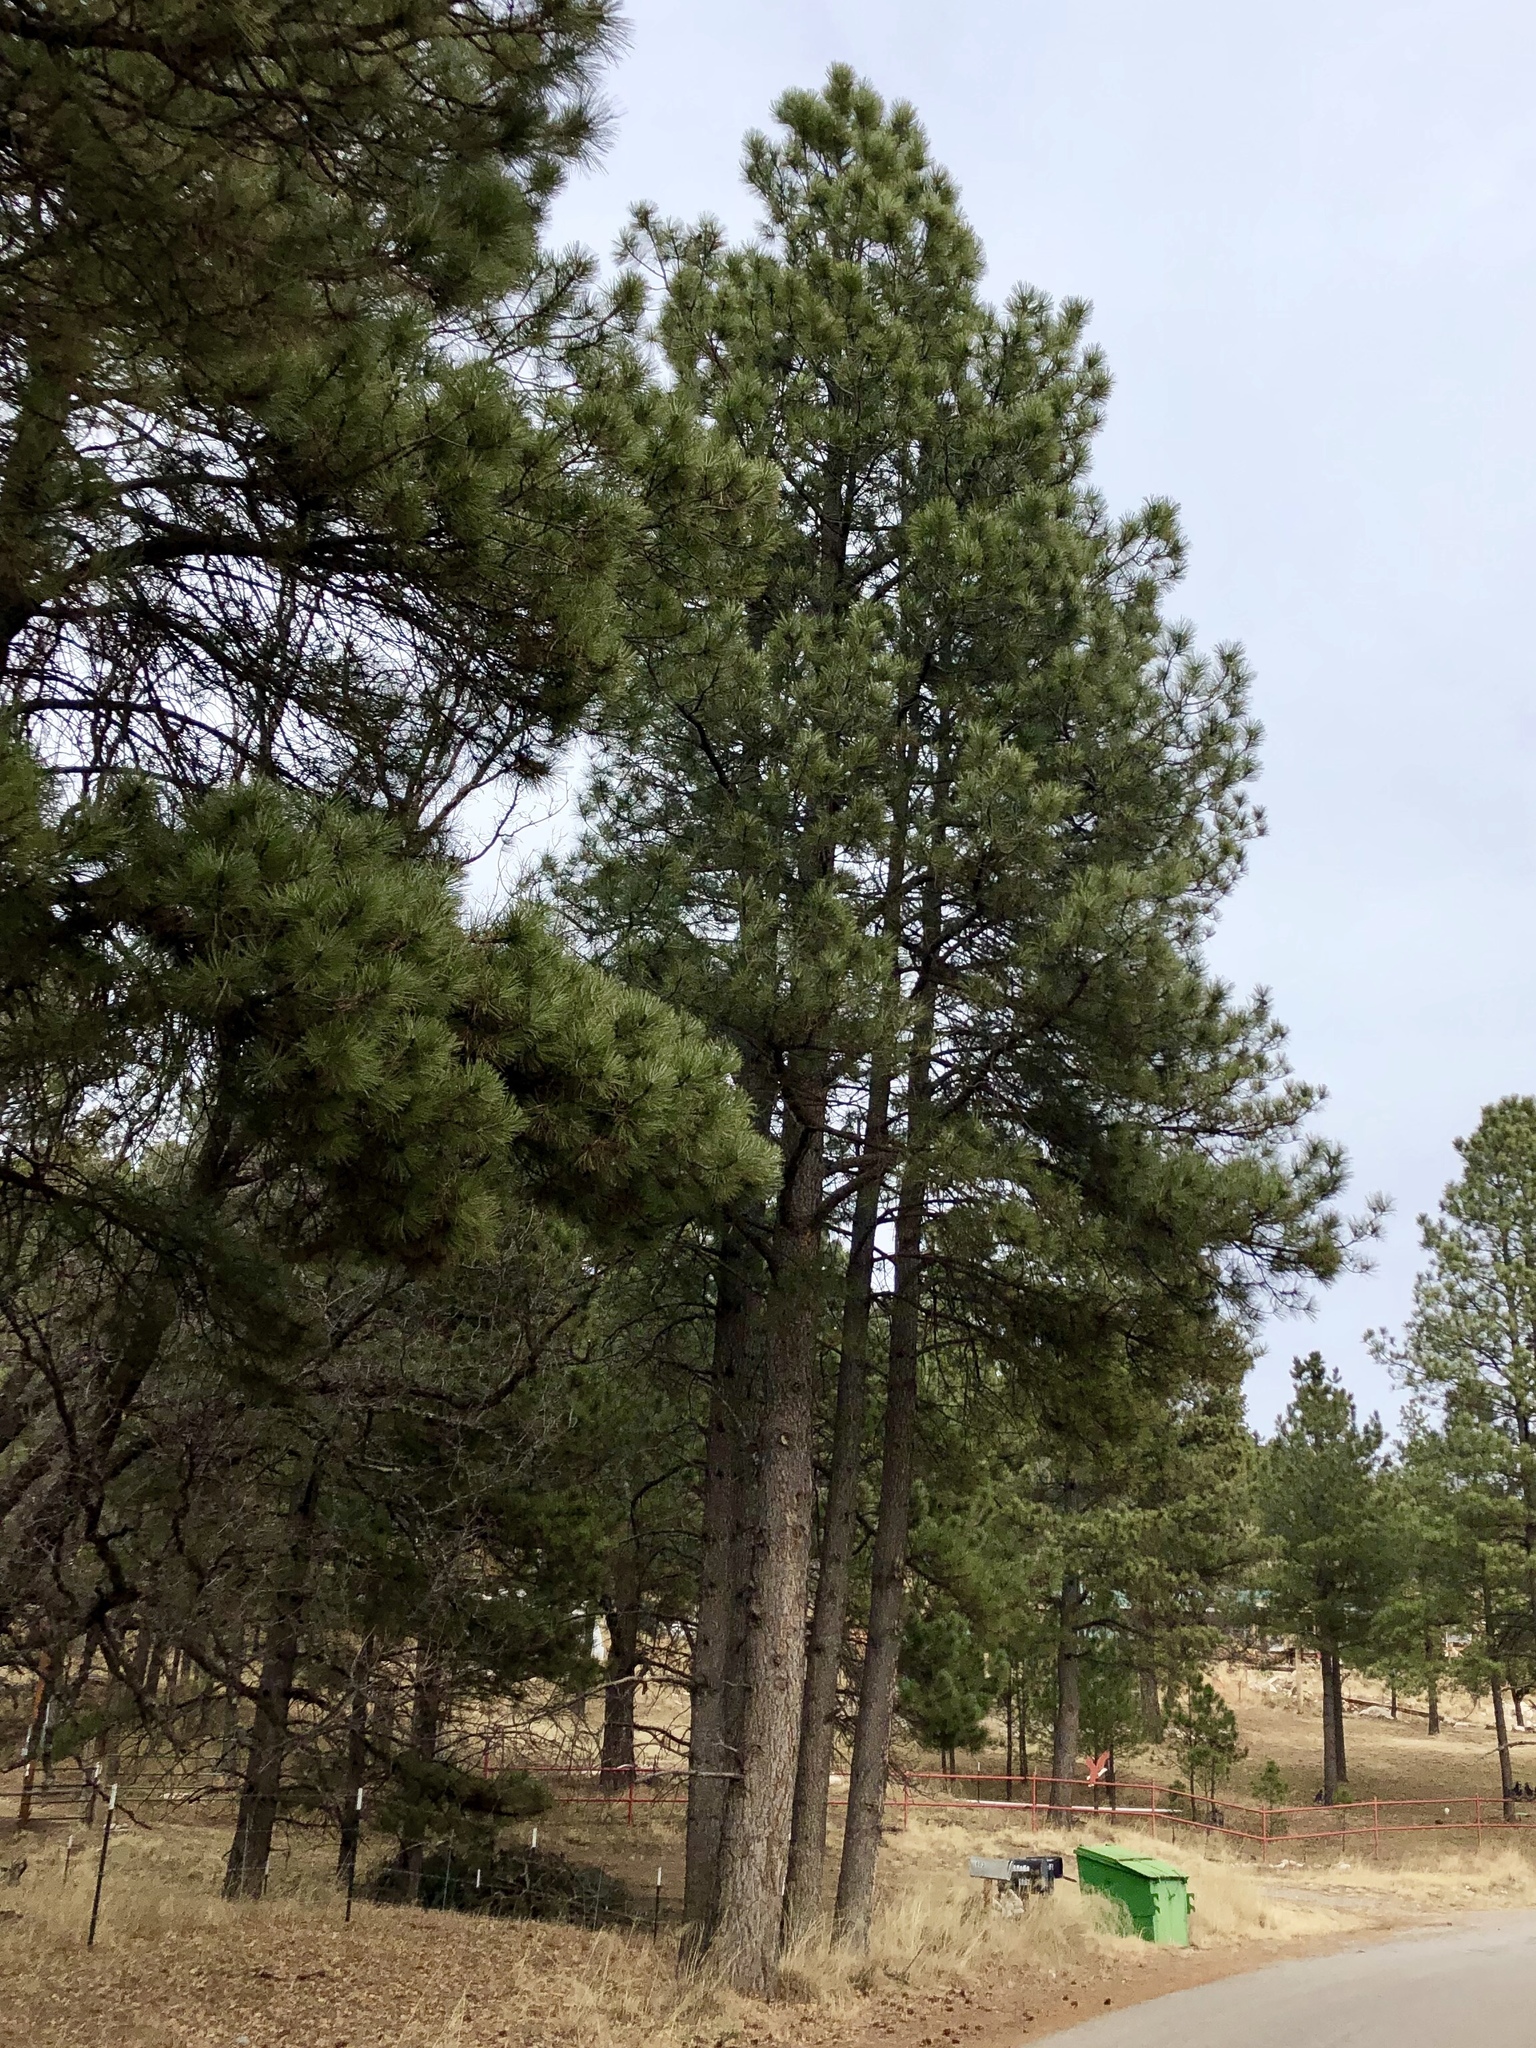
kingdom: Plantae
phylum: Tracheophyta
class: Pinopsida
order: Pinales
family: Pinaceae
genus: Pinus
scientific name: Pinus ponderosa
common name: Western yellow-pine
